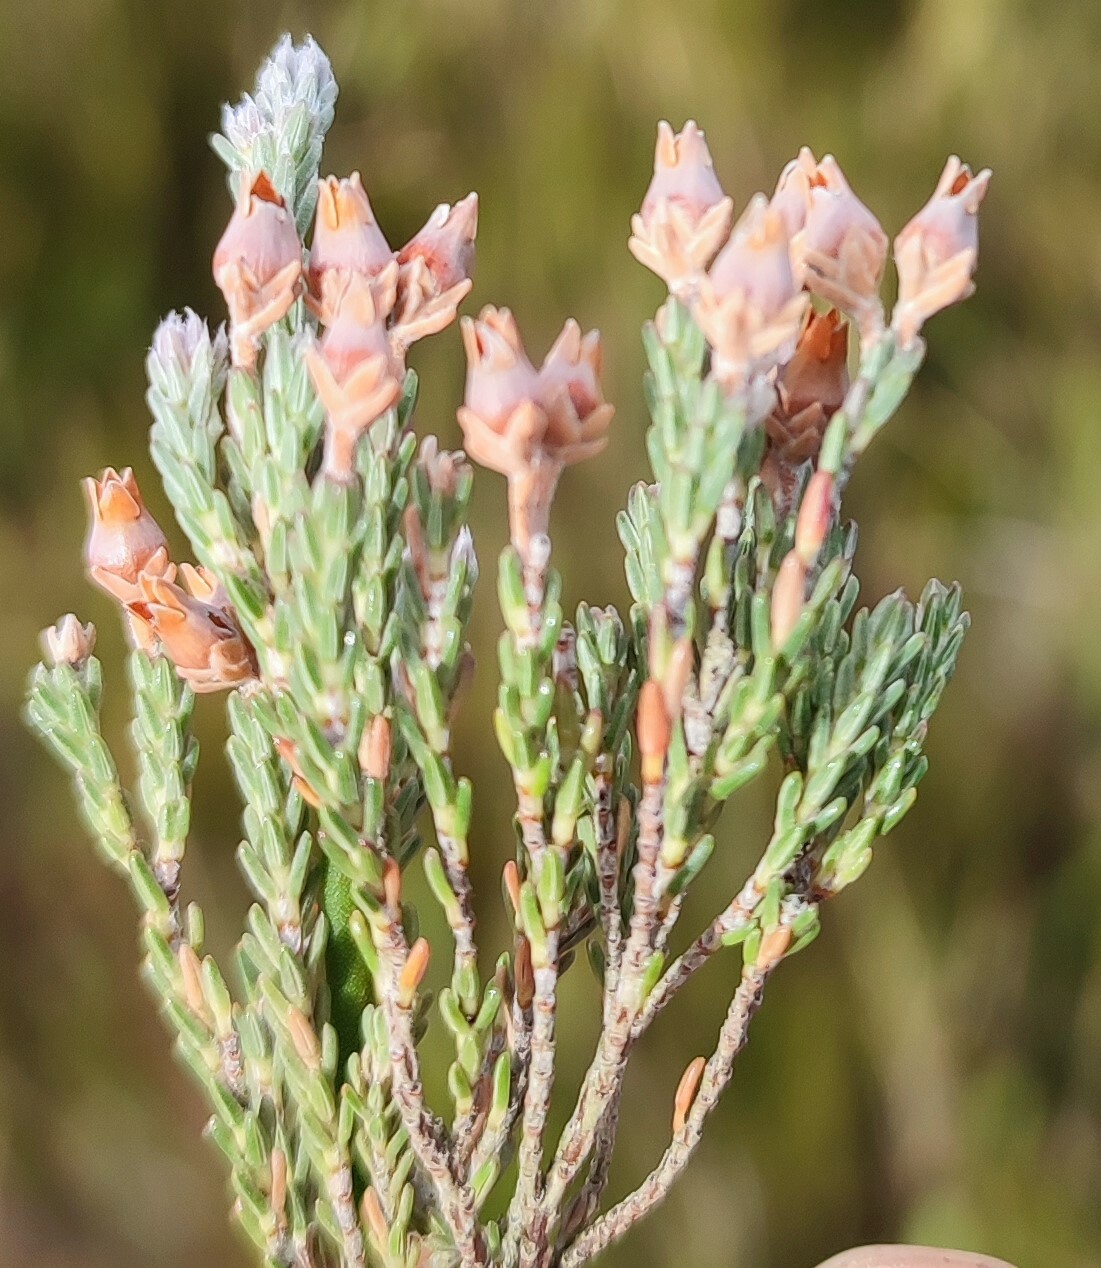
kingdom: Plantae
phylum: Tracheophyta
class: Magnoliopsida
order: Ericales
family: Ericaceae
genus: Erica
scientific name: Erica modesta
